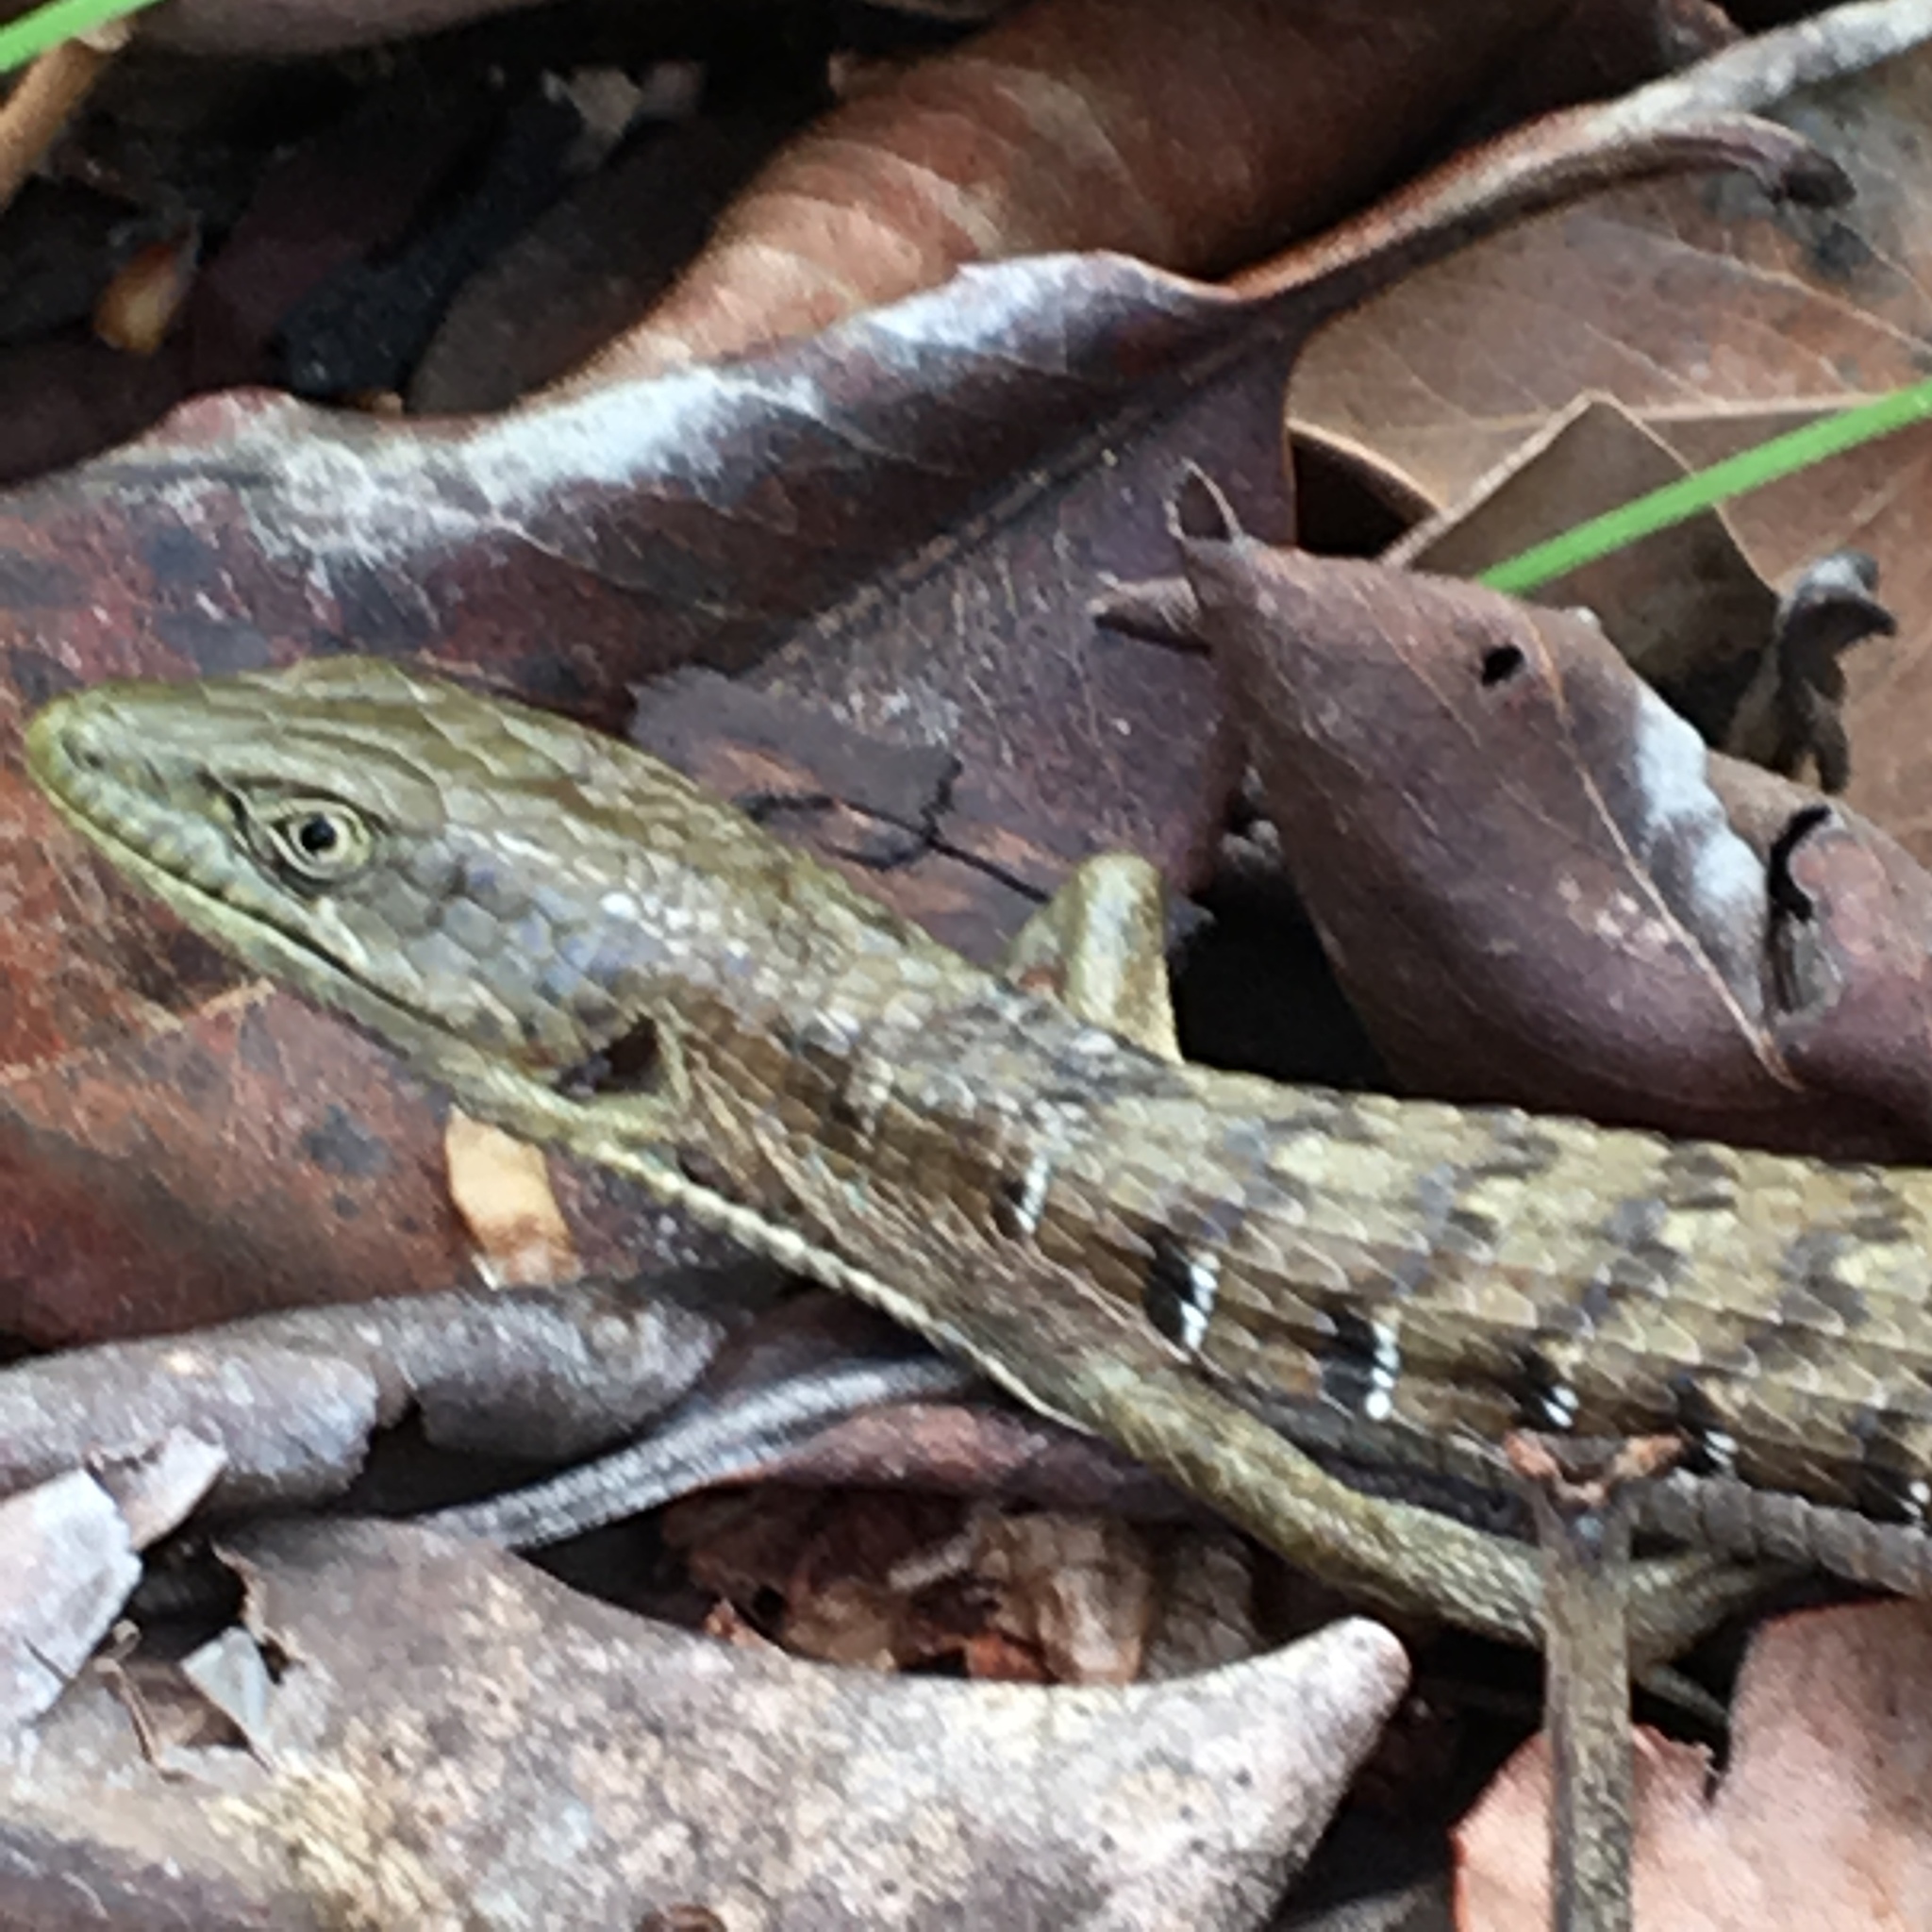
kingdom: Animalia
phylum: Chordata
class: Squamata
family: Anguidae
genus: Elgaria
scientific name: Elgaria multicarinata
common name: Southern alligator lizard
